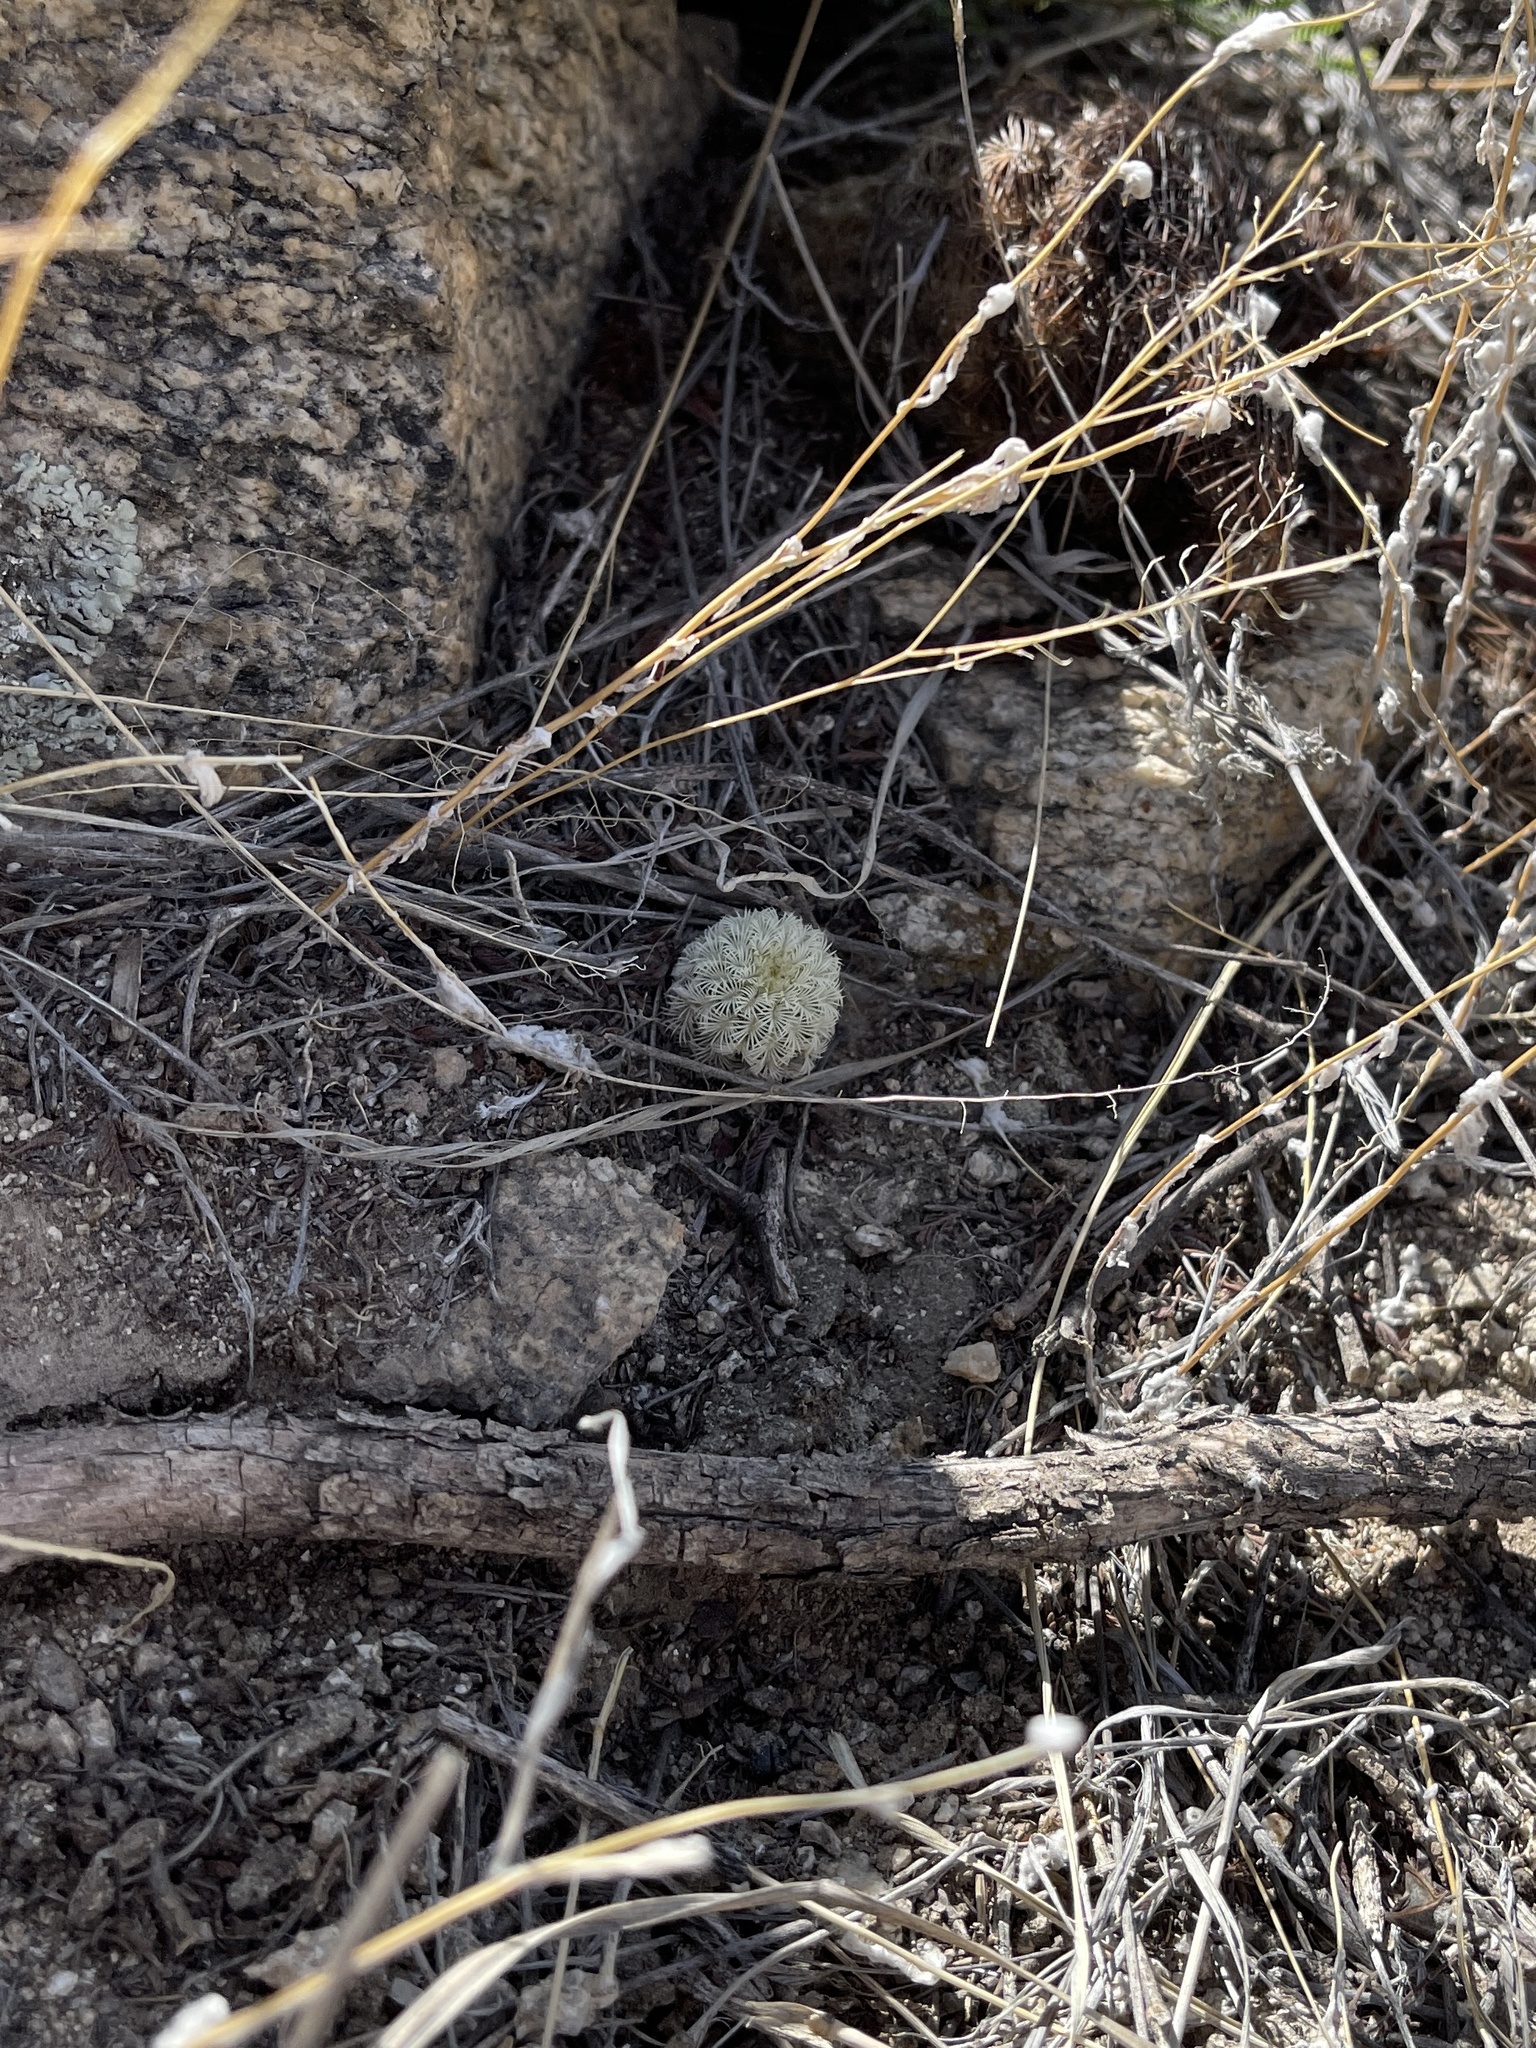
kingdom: Plantae
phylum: Tracheophyta
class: Magnoliopsida
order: Caryophyllales
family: Cactaceae
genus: Echinocereus
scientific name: Echinocereus rigidissimus
